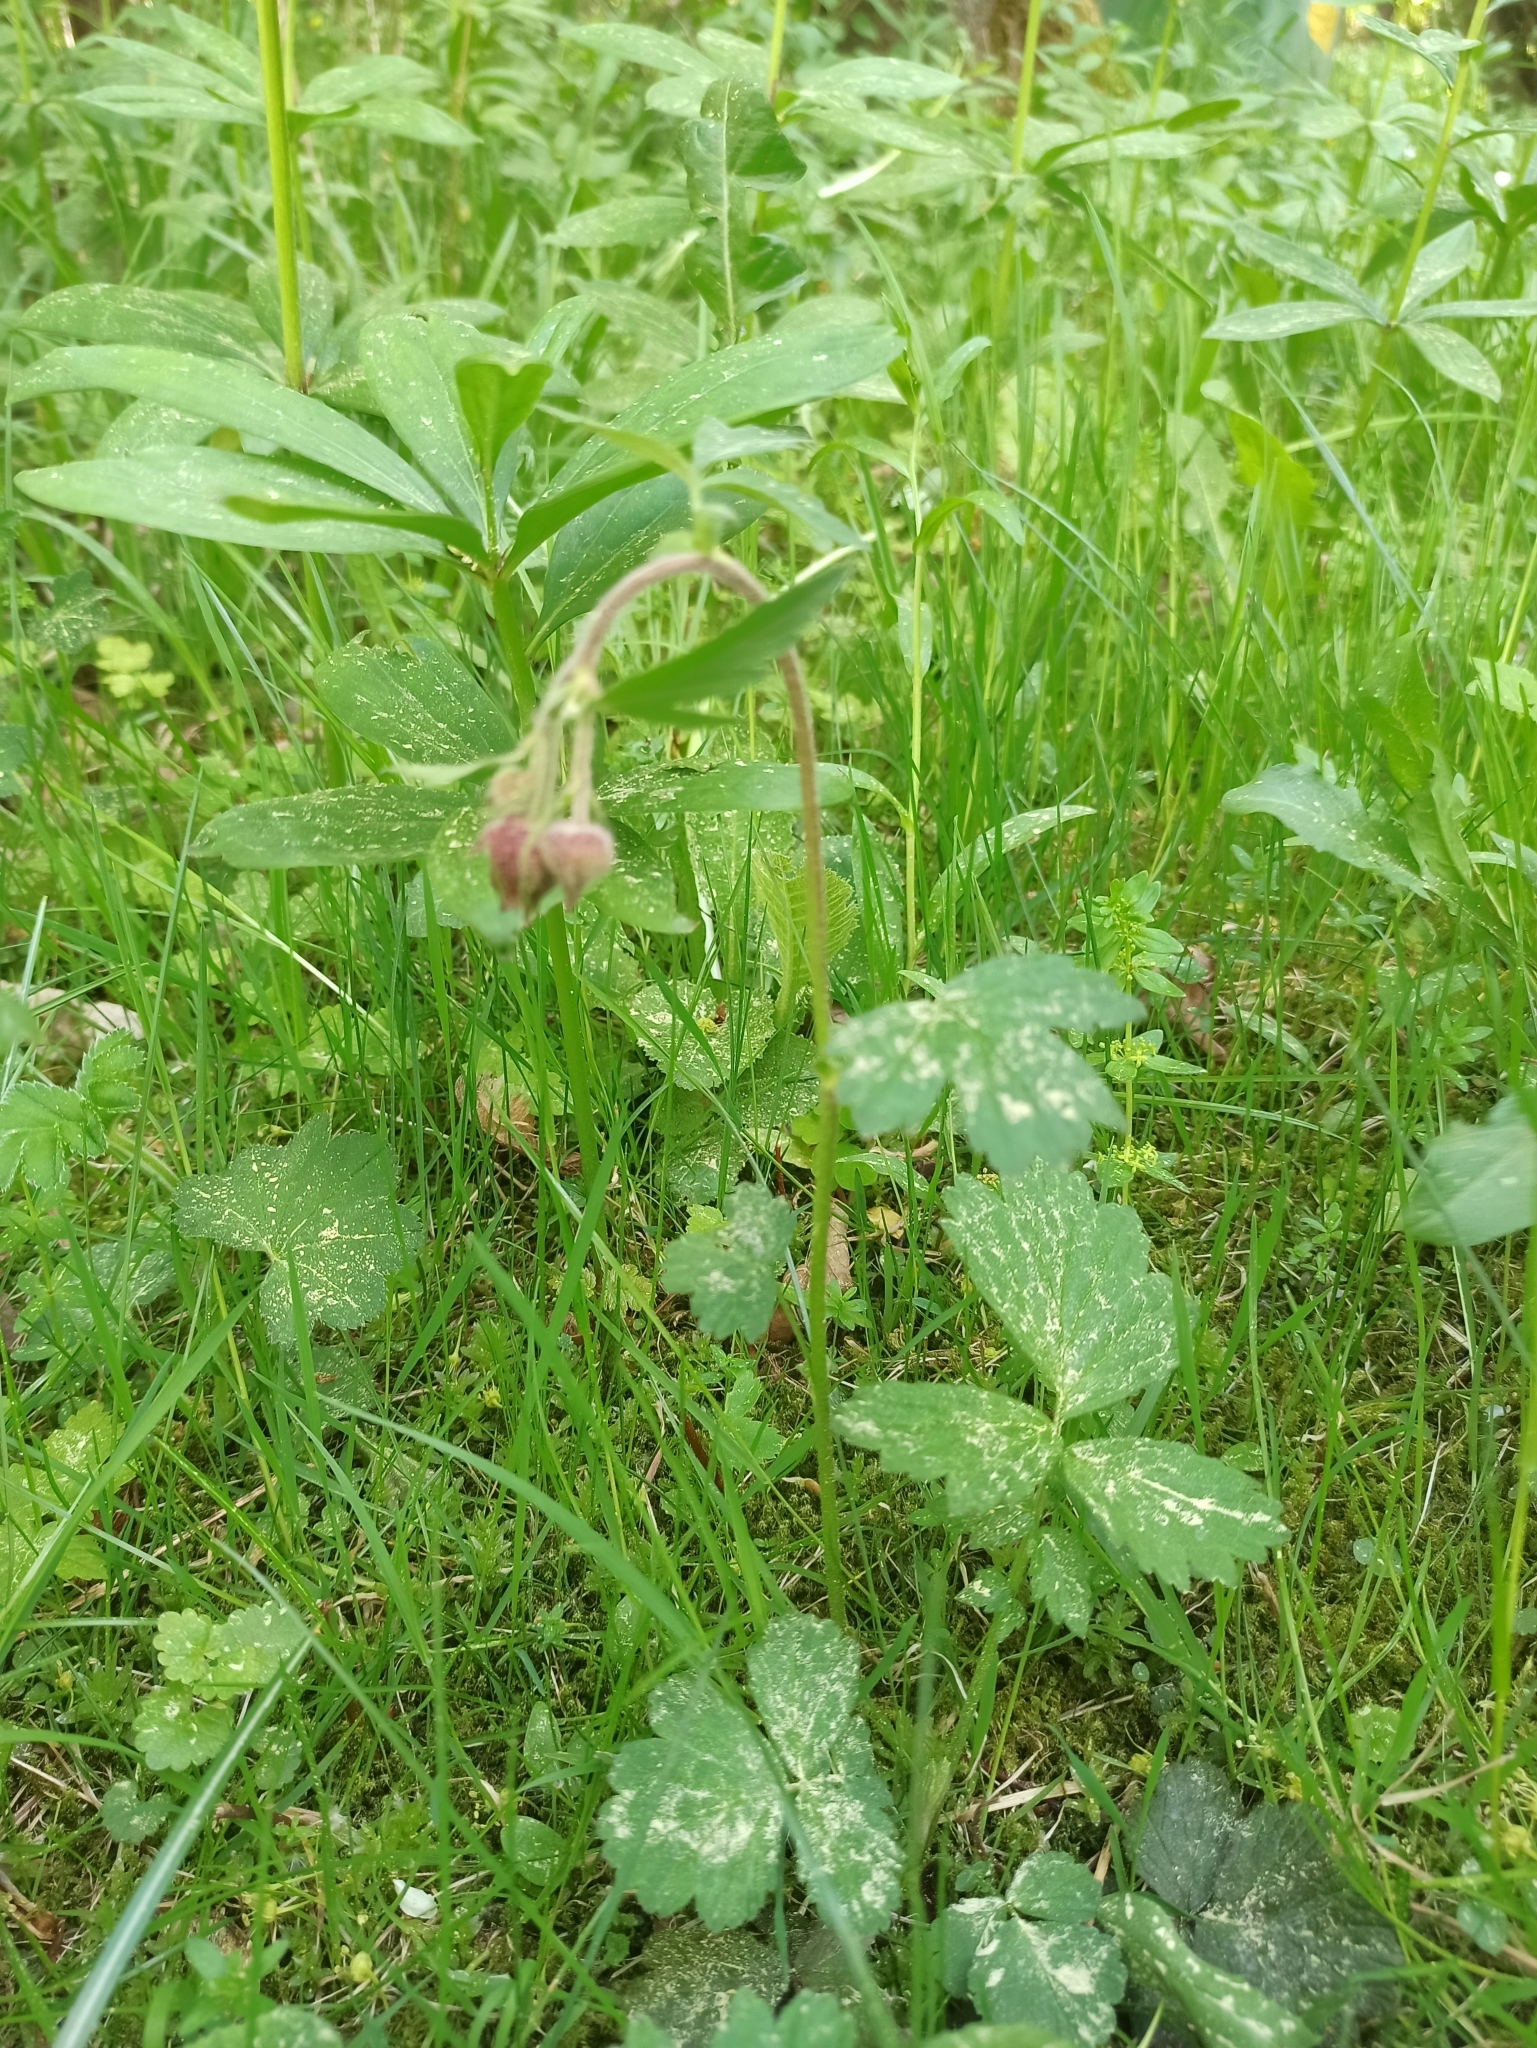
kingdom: Plantae
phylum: Tracheophyta
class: Magnoliopsida
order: Rosales
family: Rosaceae
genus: Geum
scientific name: Geum rivale
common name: Water avens
